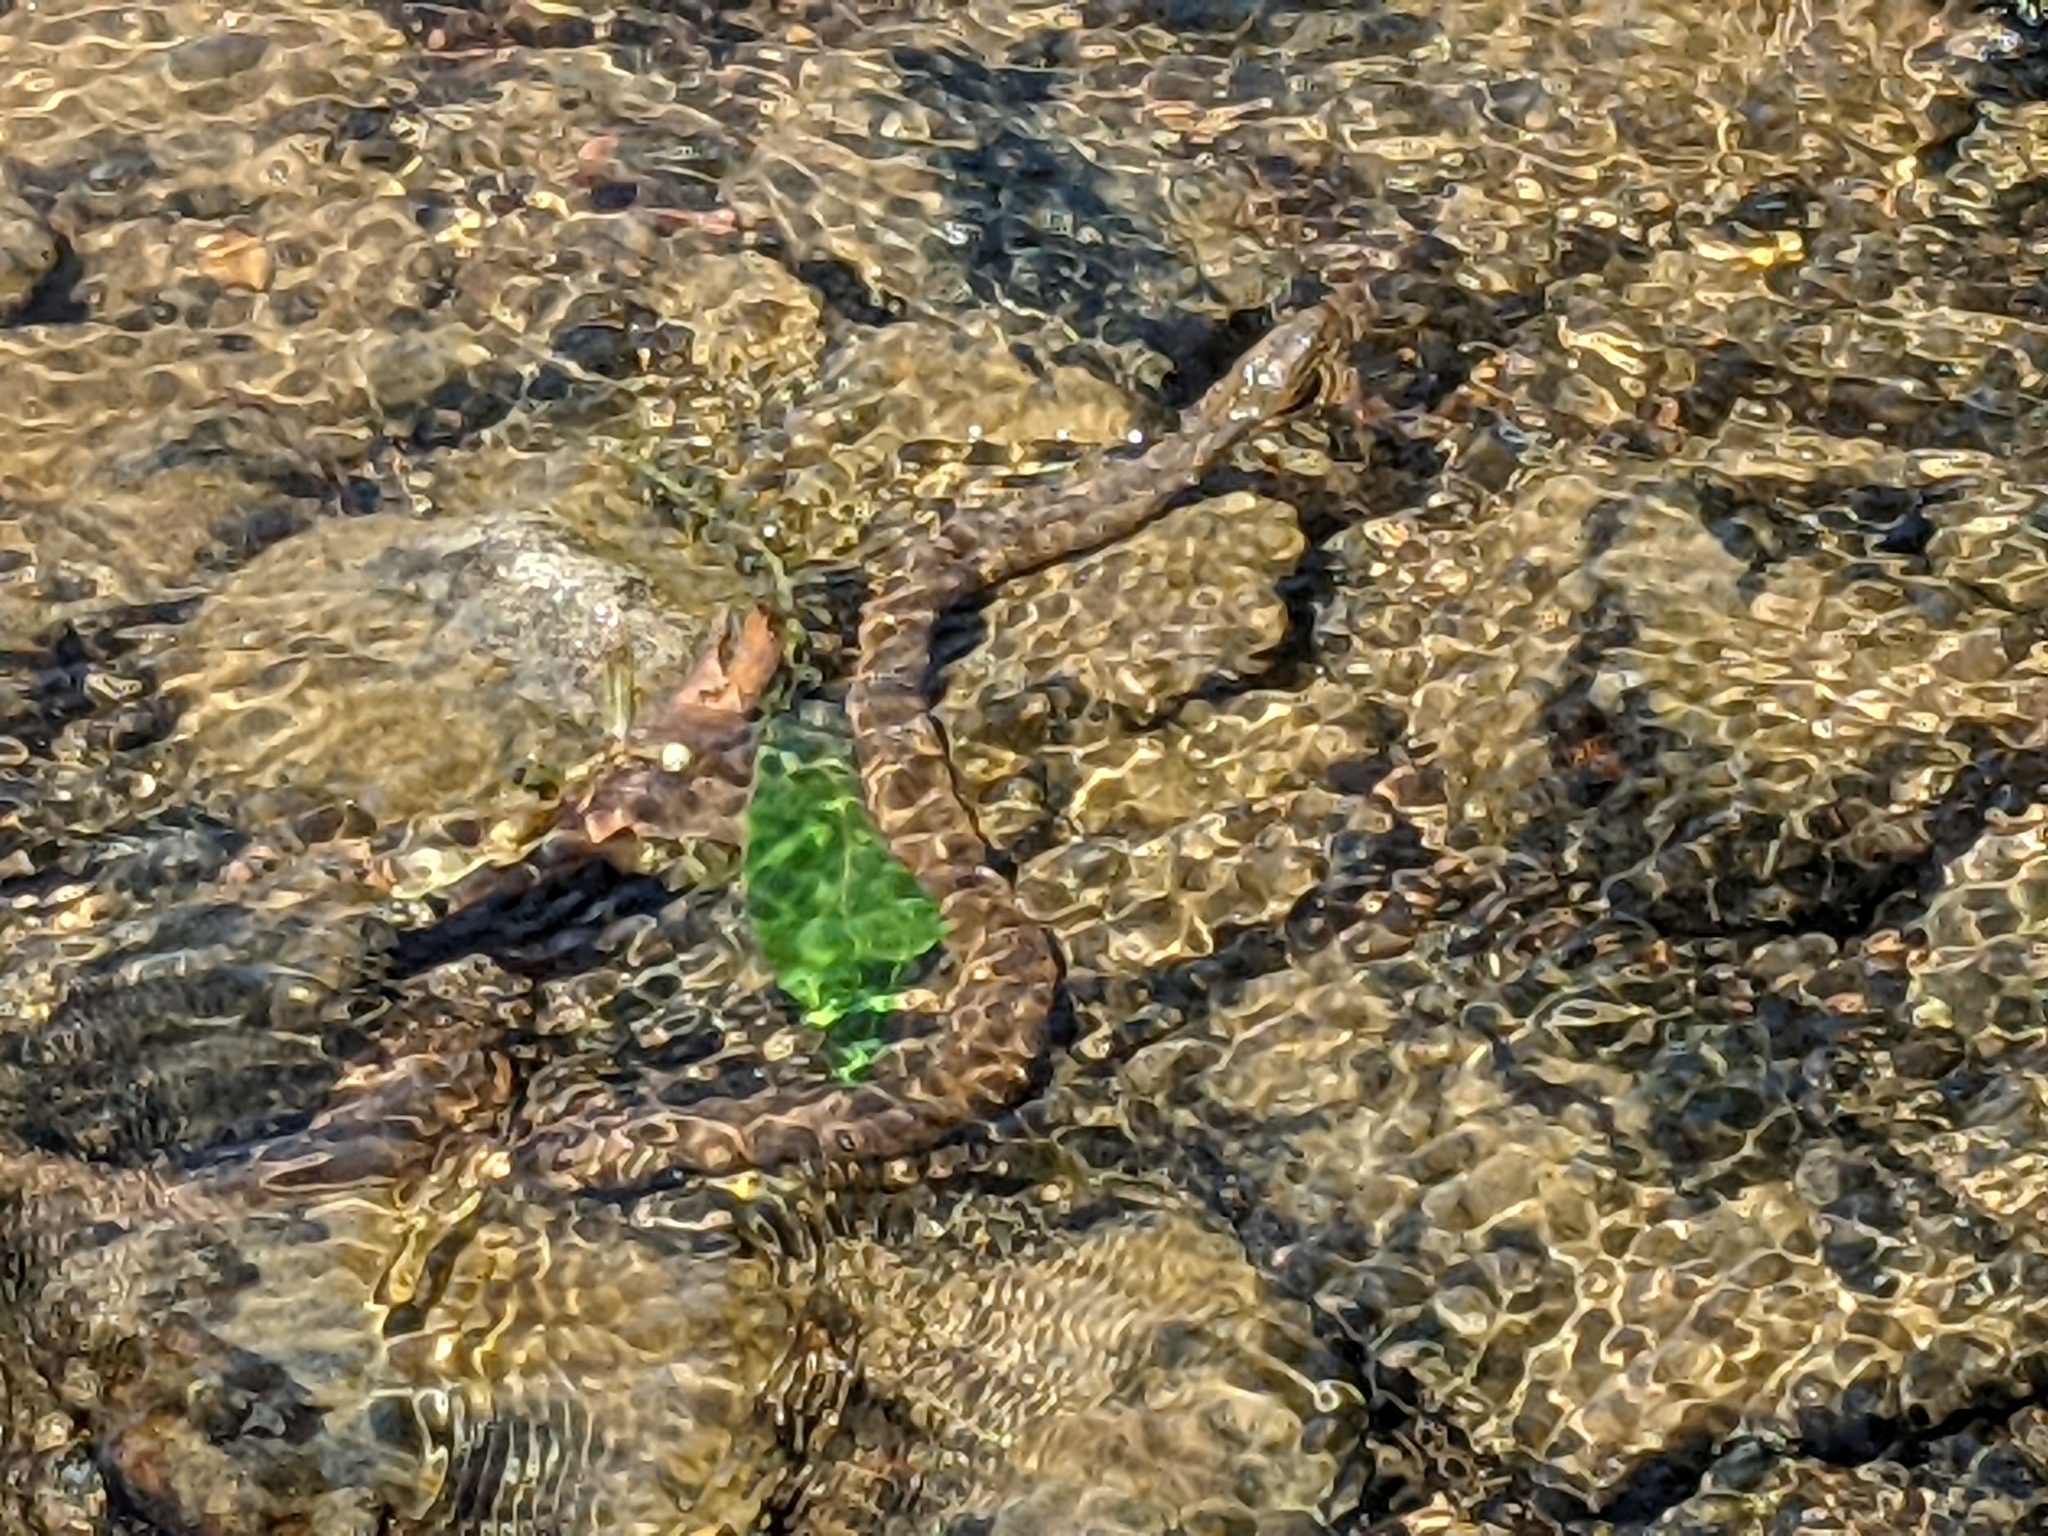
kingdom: Animalia
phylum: Chordata
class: Squamata
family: Colubridae
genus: Nerodia
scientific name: Nerodia sipedon
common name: Northern water snake
